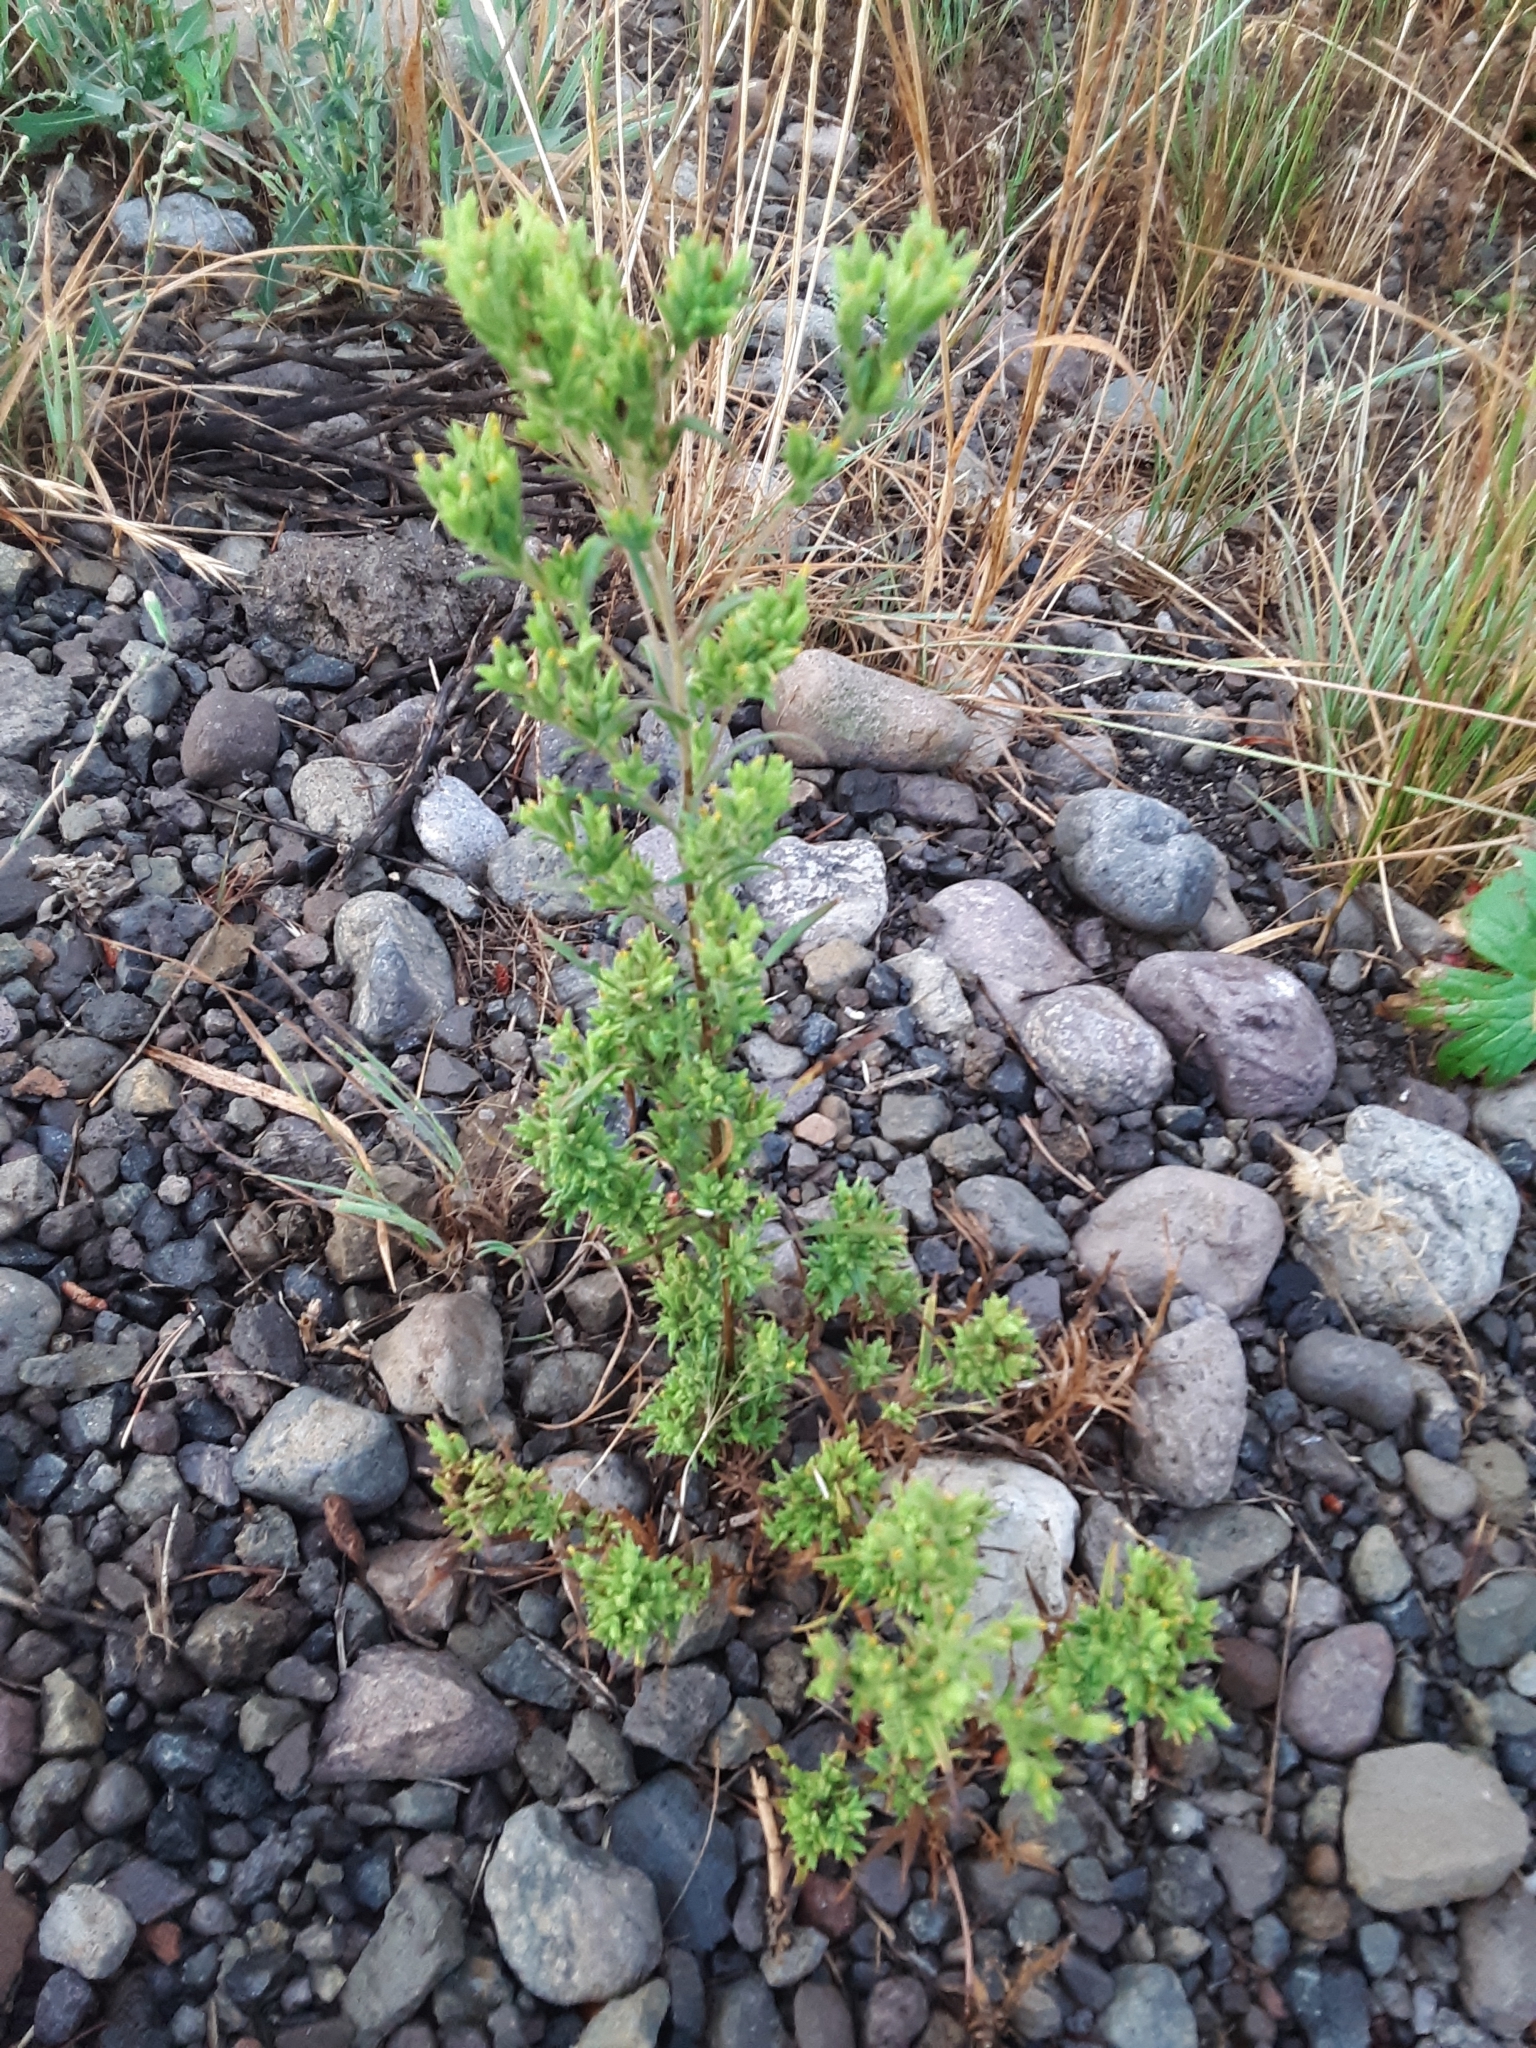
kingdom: Plantae
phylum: Tracheophyta
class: Magnoliopsida
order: Asterales
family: Asteraceae
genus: Madia
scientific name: Madia glomerata
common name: Mountain tarweed
